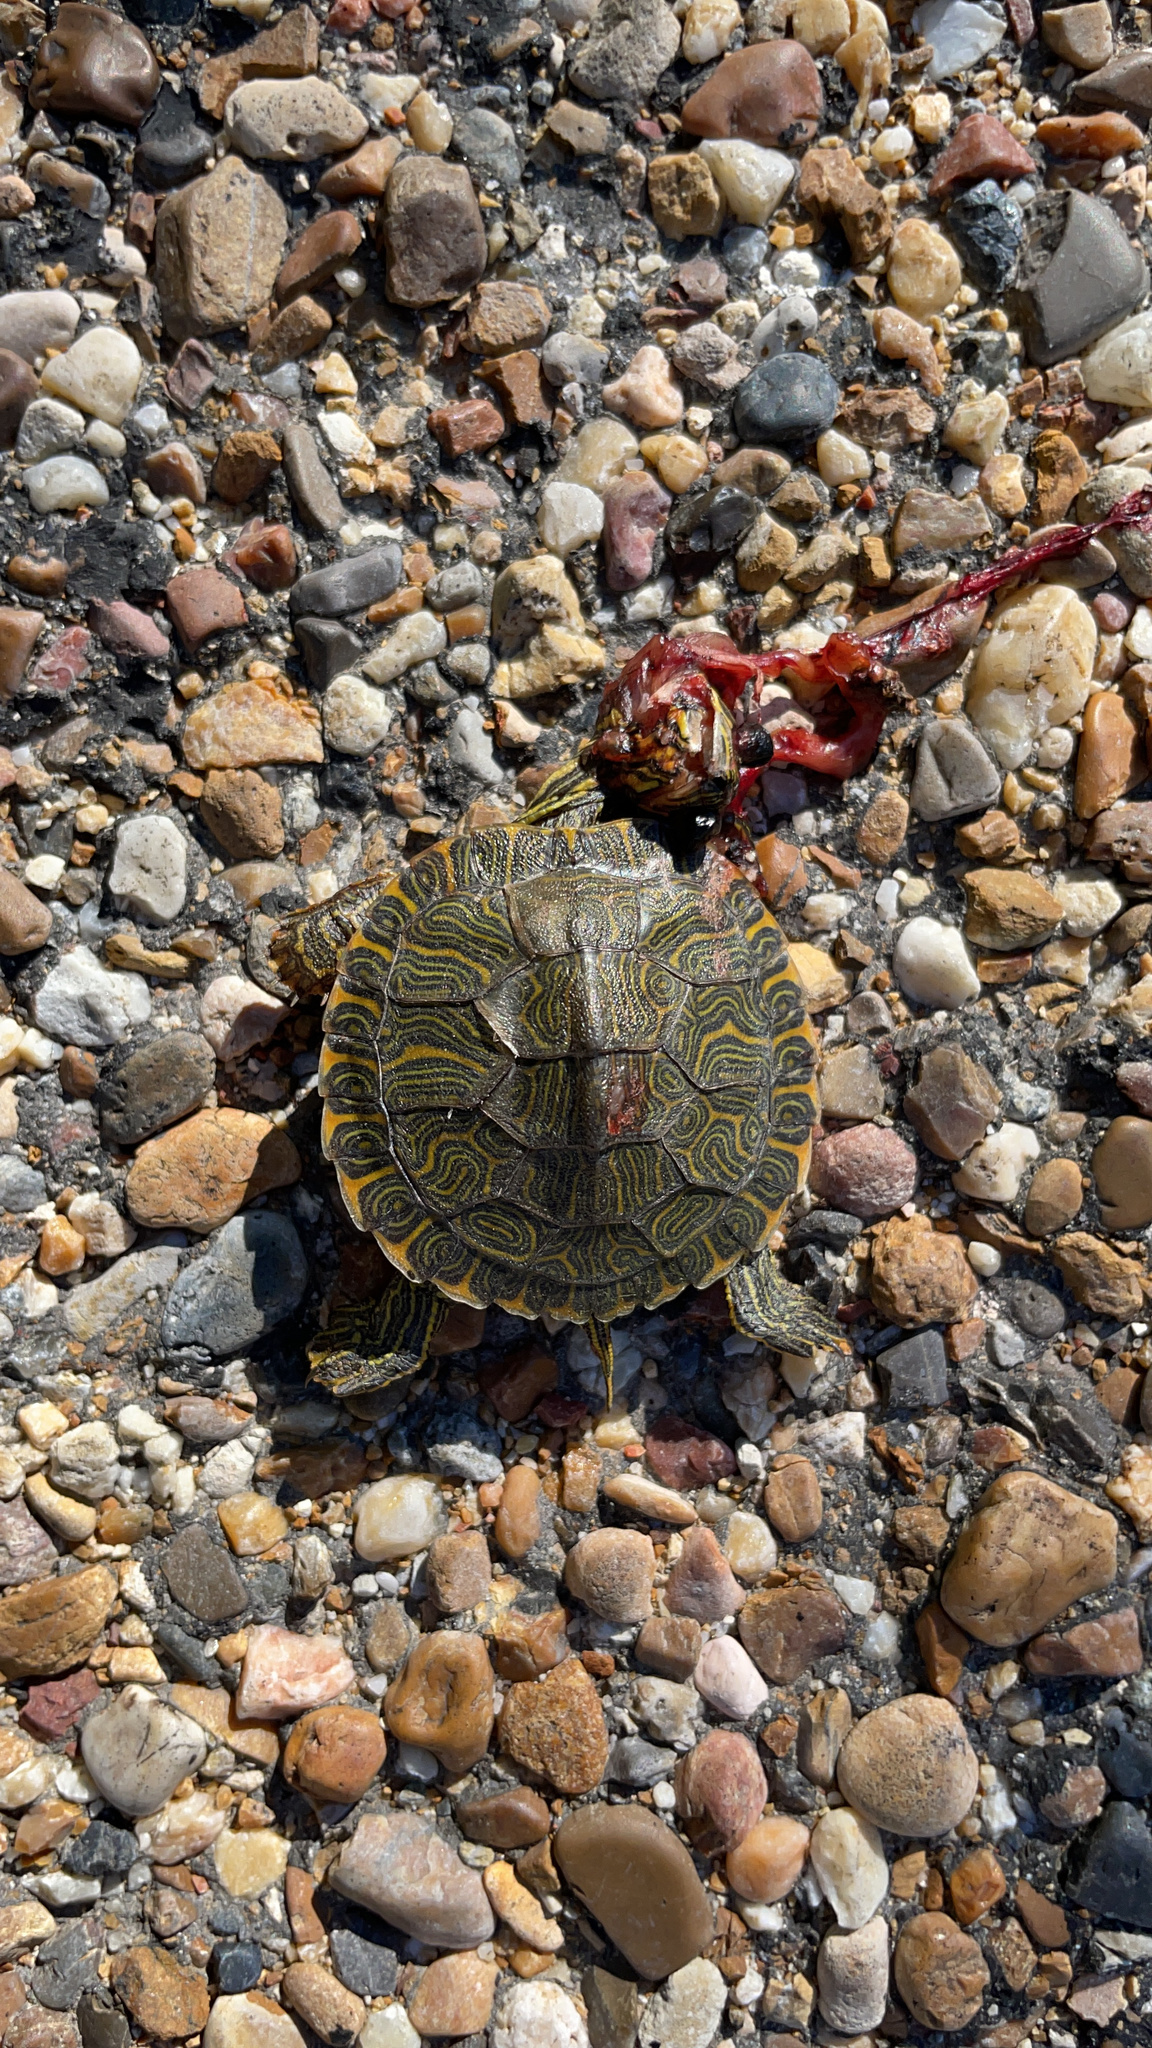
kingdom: Animalia
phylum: Chordata
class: Testudines
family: Emydidae
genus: Trachemys
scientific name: Trachemys scripta
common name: Slider
